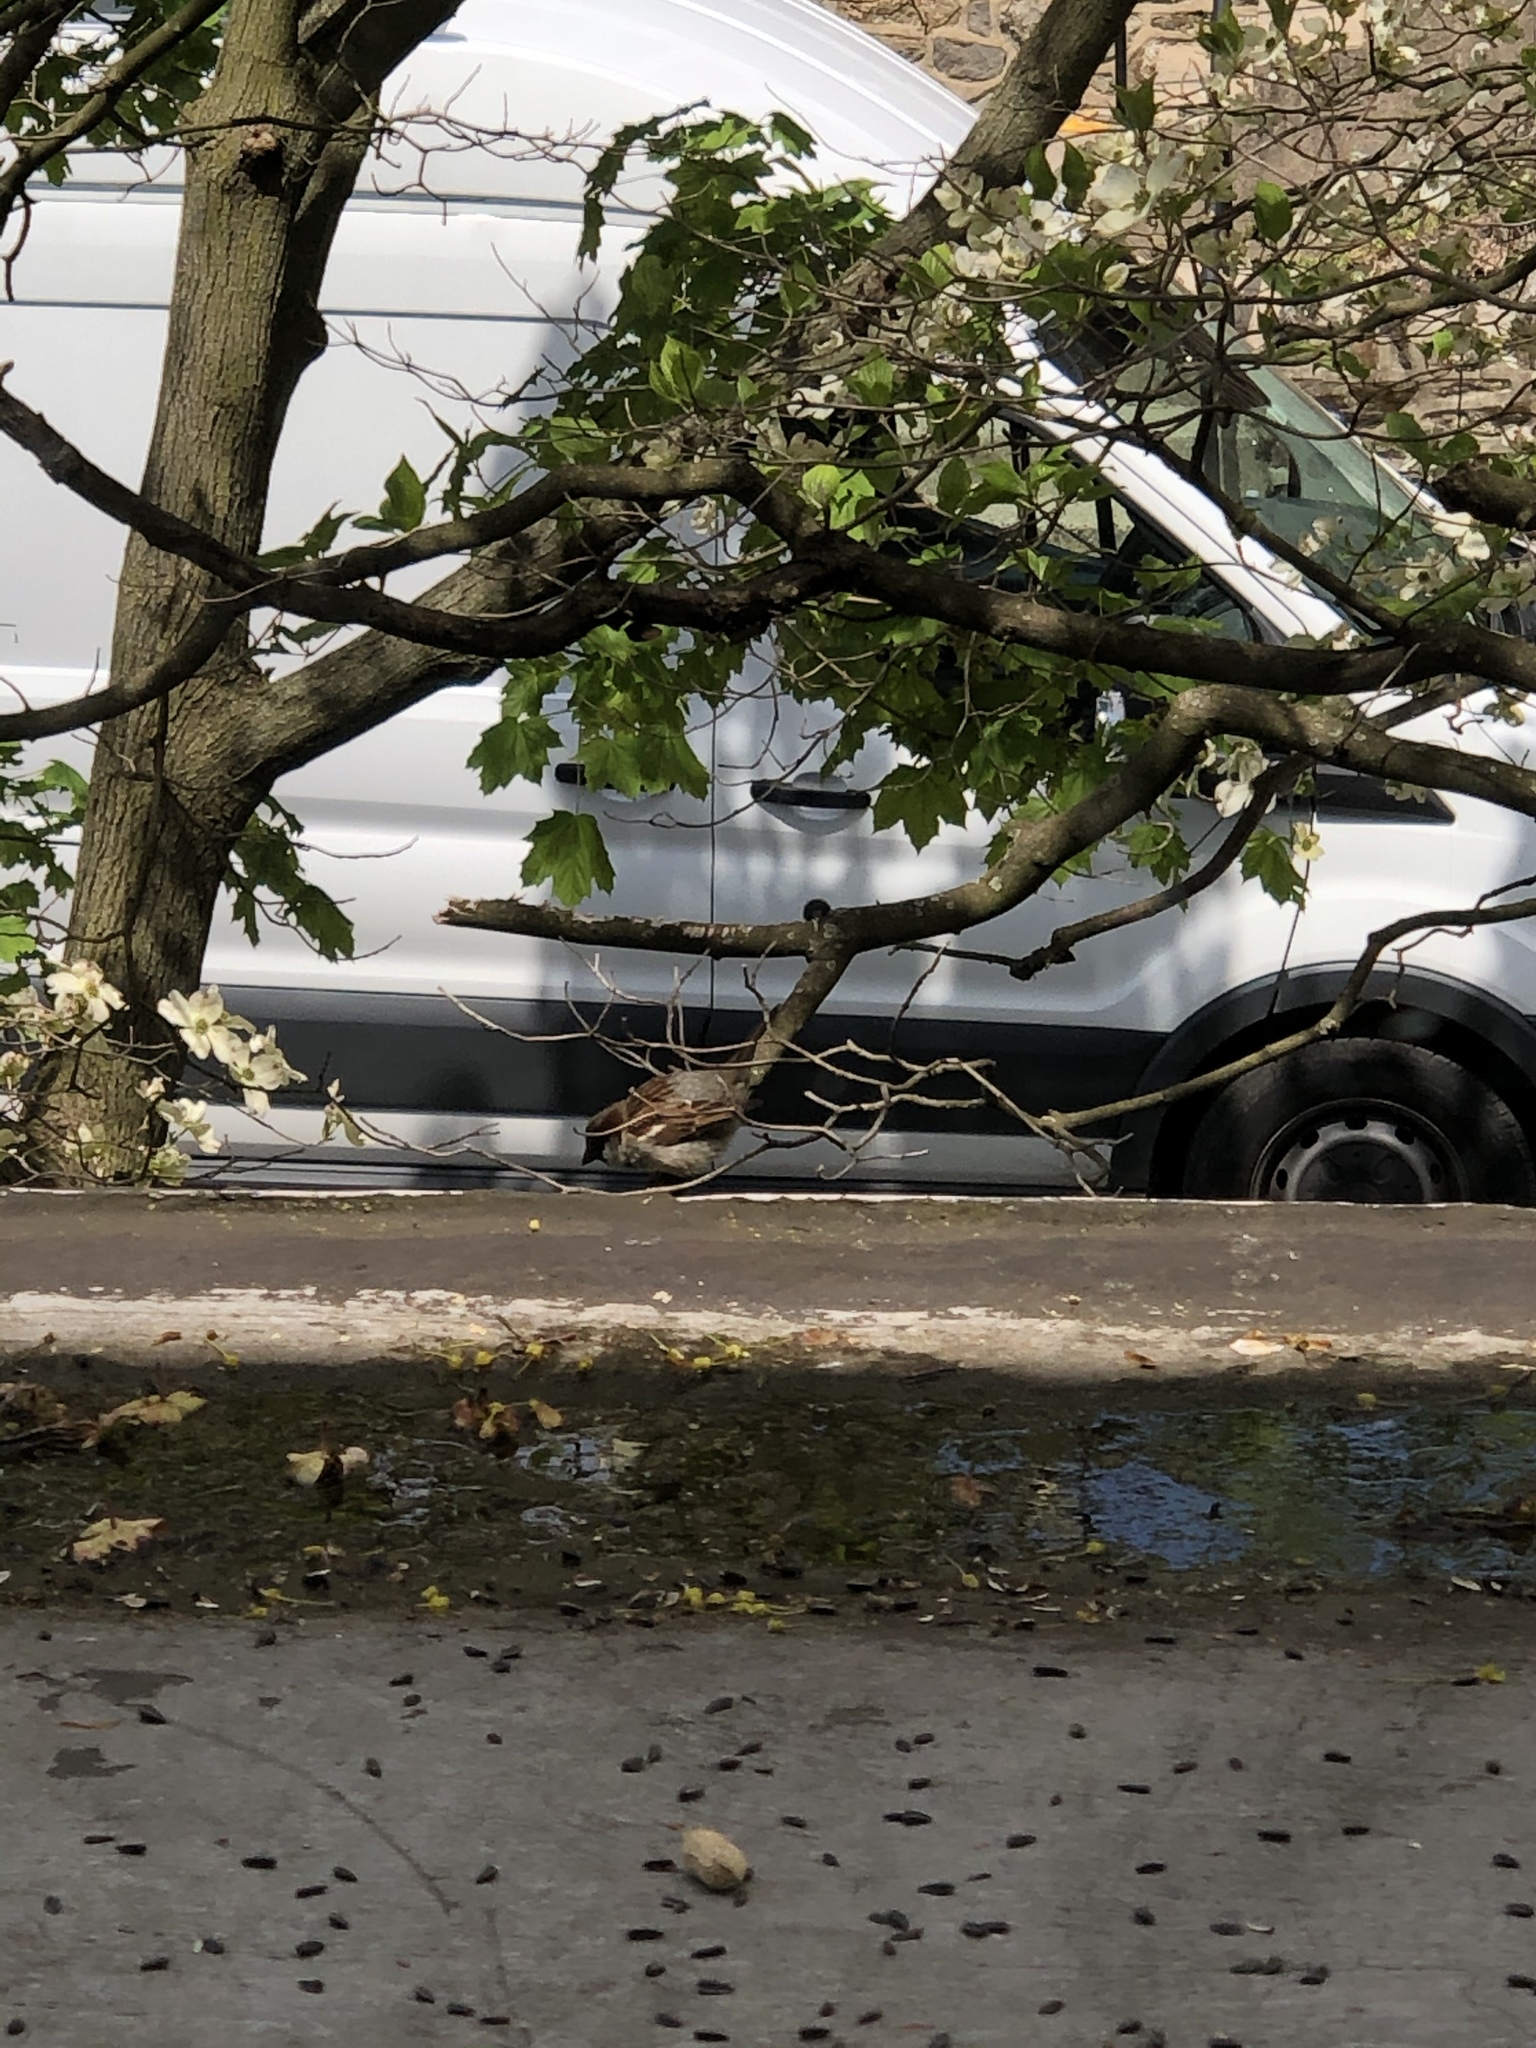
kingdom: Animalia
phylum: Chordata
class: Aves
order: Passeriformes
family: Passeridae
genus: Passer
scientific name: Passer domesticus
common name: House sparrow
